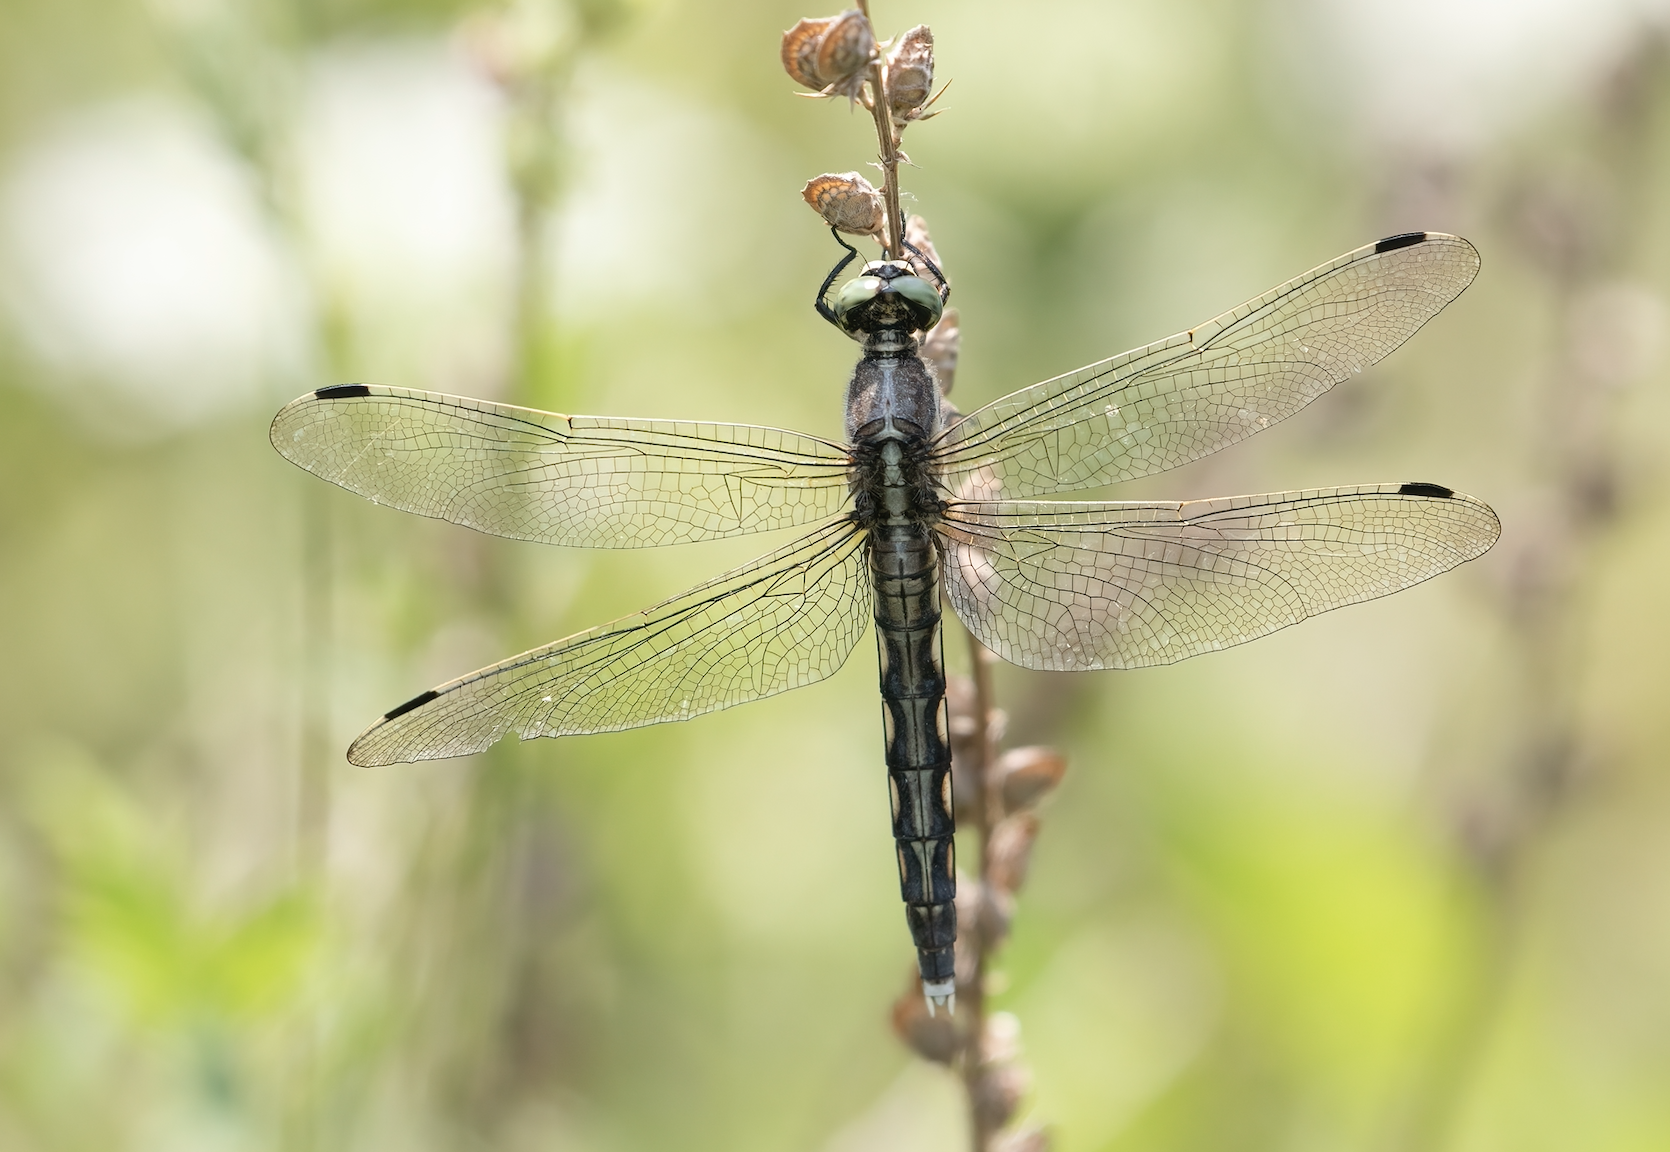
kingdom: Animalia
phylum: Arthropoda
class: Insecta
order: Odonata
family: Libellulidae
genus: Orthetrum
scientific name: Orthetrum albistylum
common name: White-tailed skimmer
